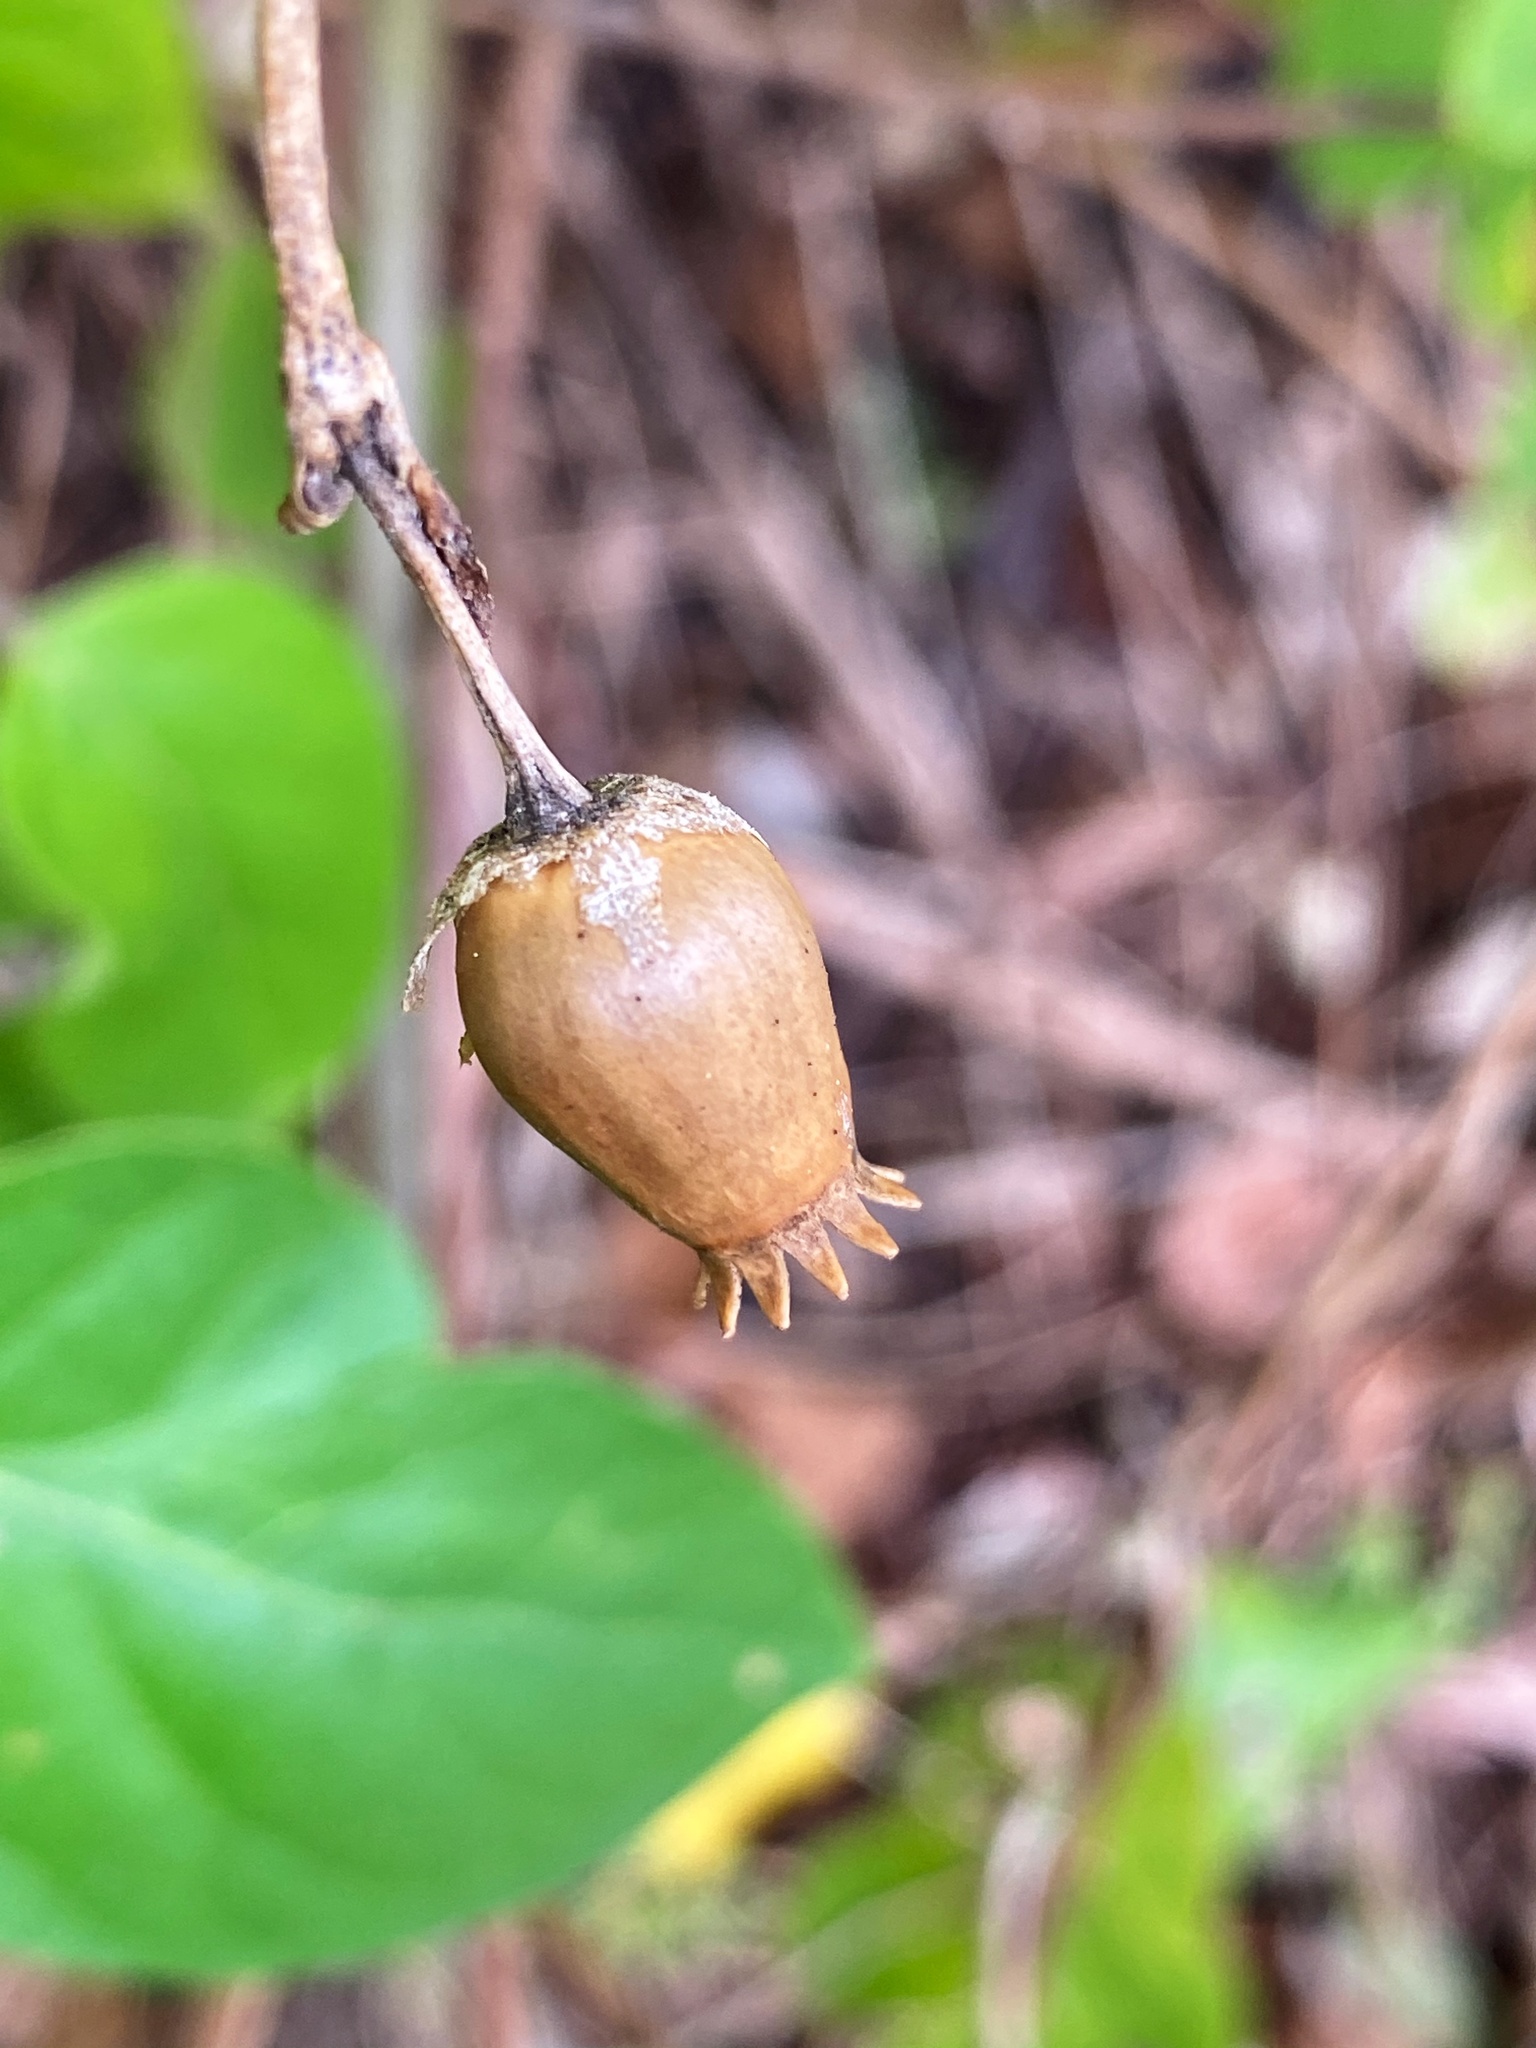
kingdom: Plantae
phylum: Tracheophyta
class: Magnoliopsida
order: Caryophyllales
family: Caryophyllaceae
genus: Silene
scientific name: Silene latifolia
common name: White campion
